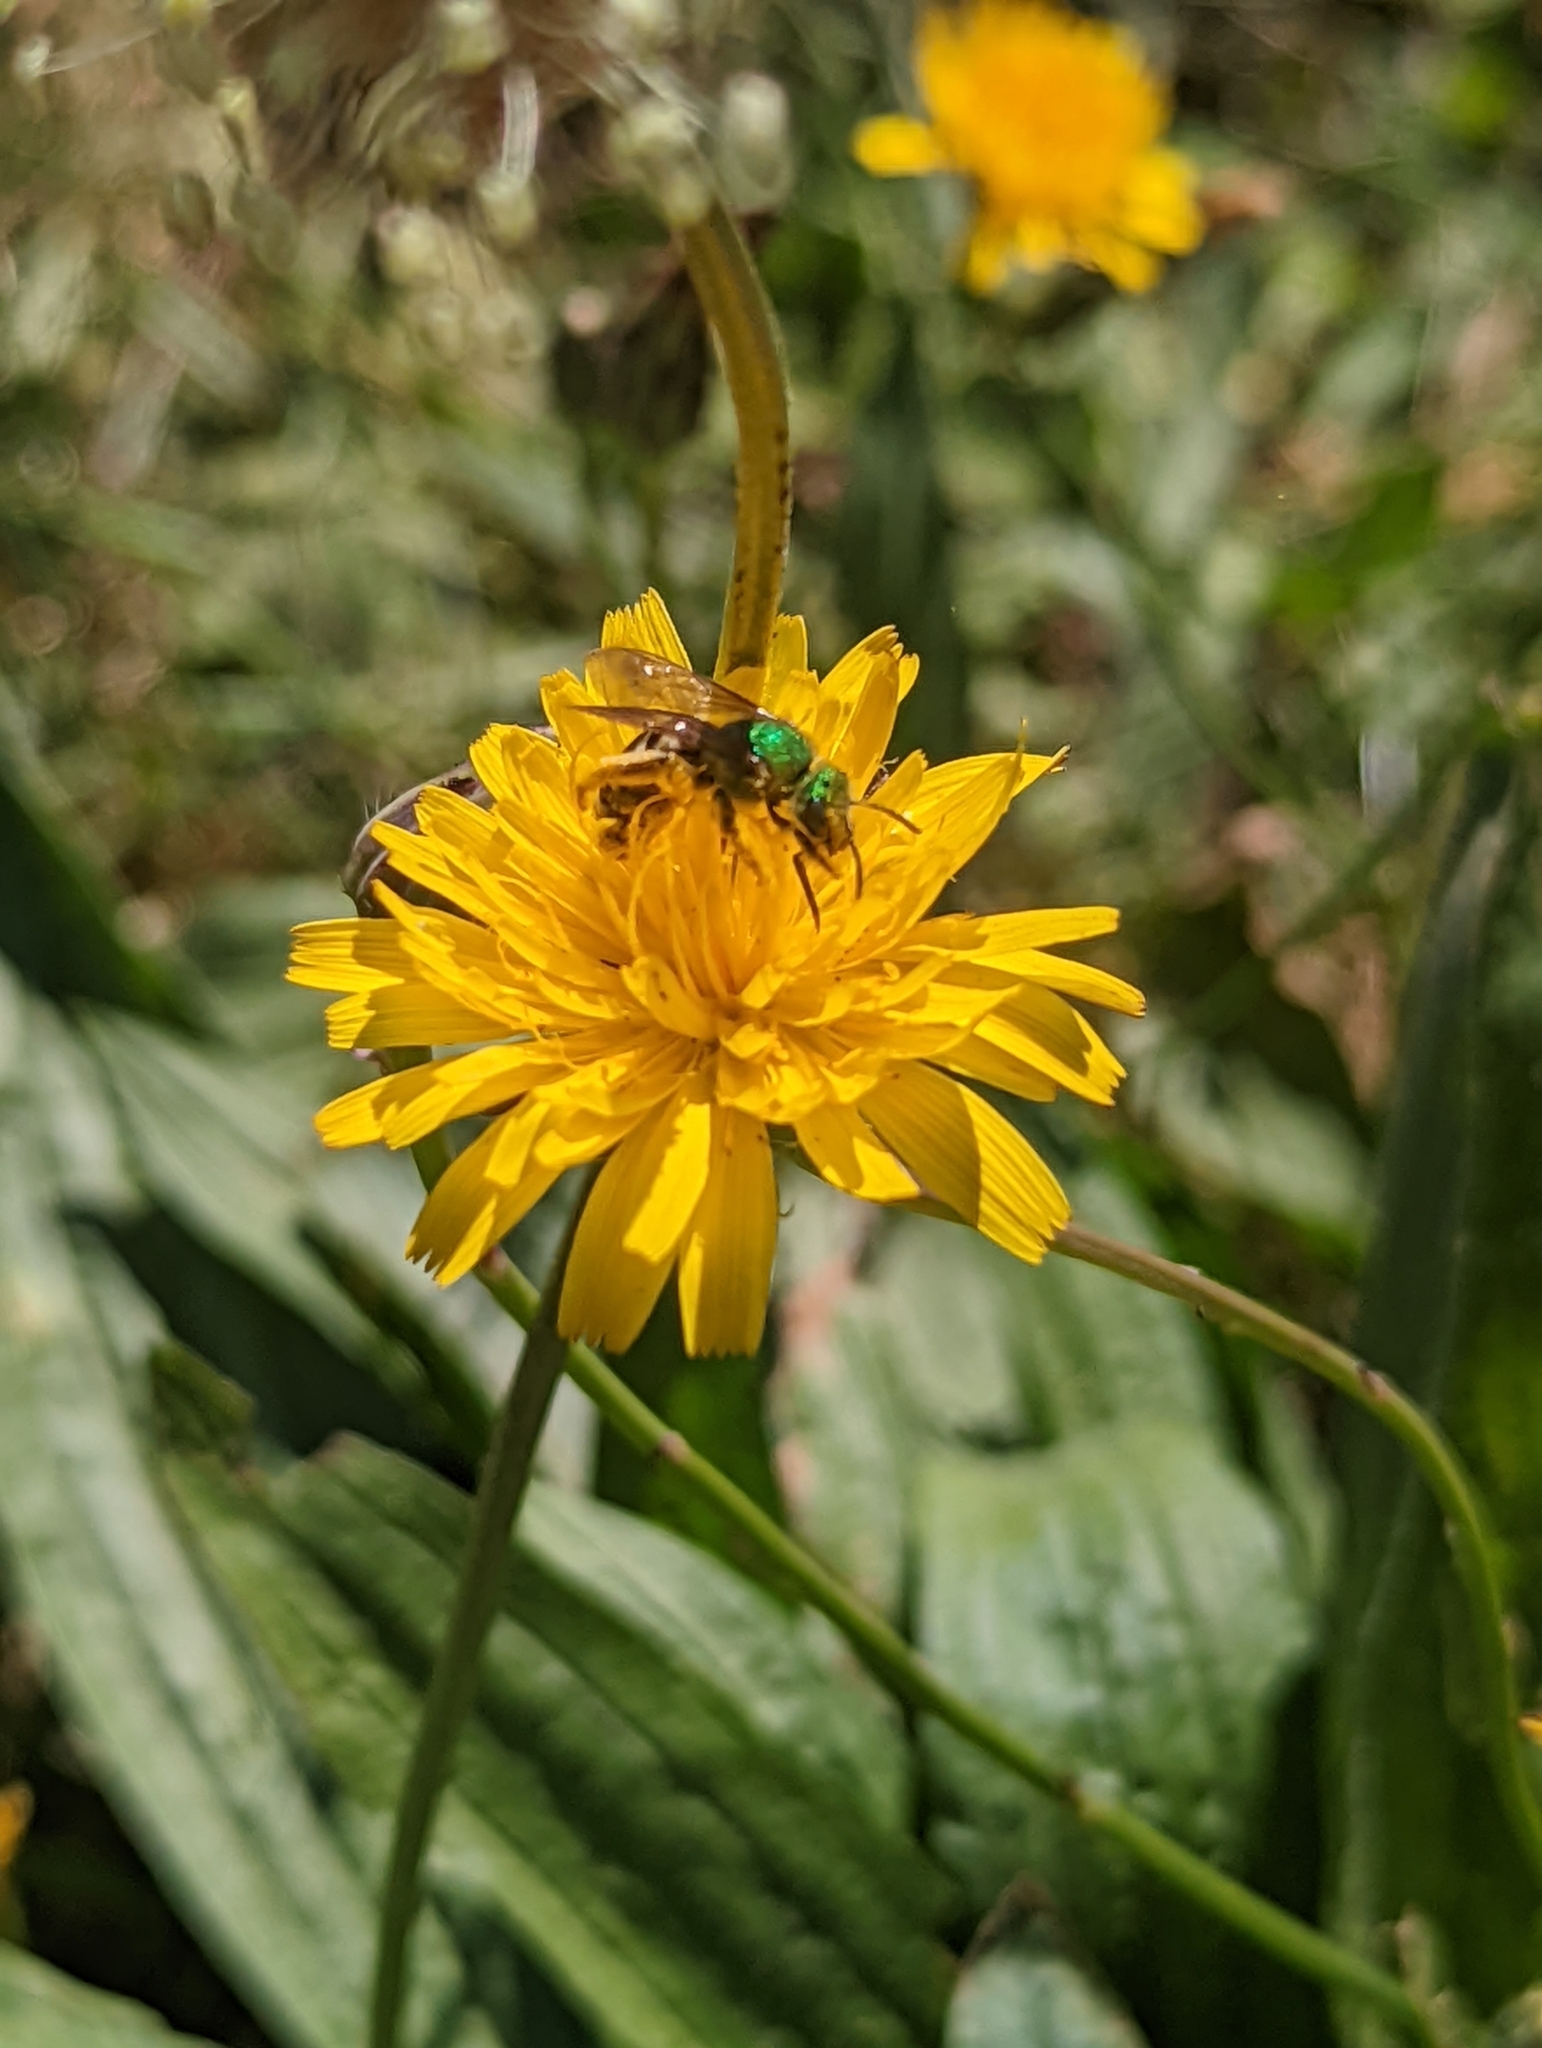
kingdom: Animalia
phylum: Arthropoda
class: Insecta
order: Hymenoptera
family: Halictidae
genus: Agapostemon
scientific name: Agapostemon virescens
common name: Bicolored striped sweat bee
